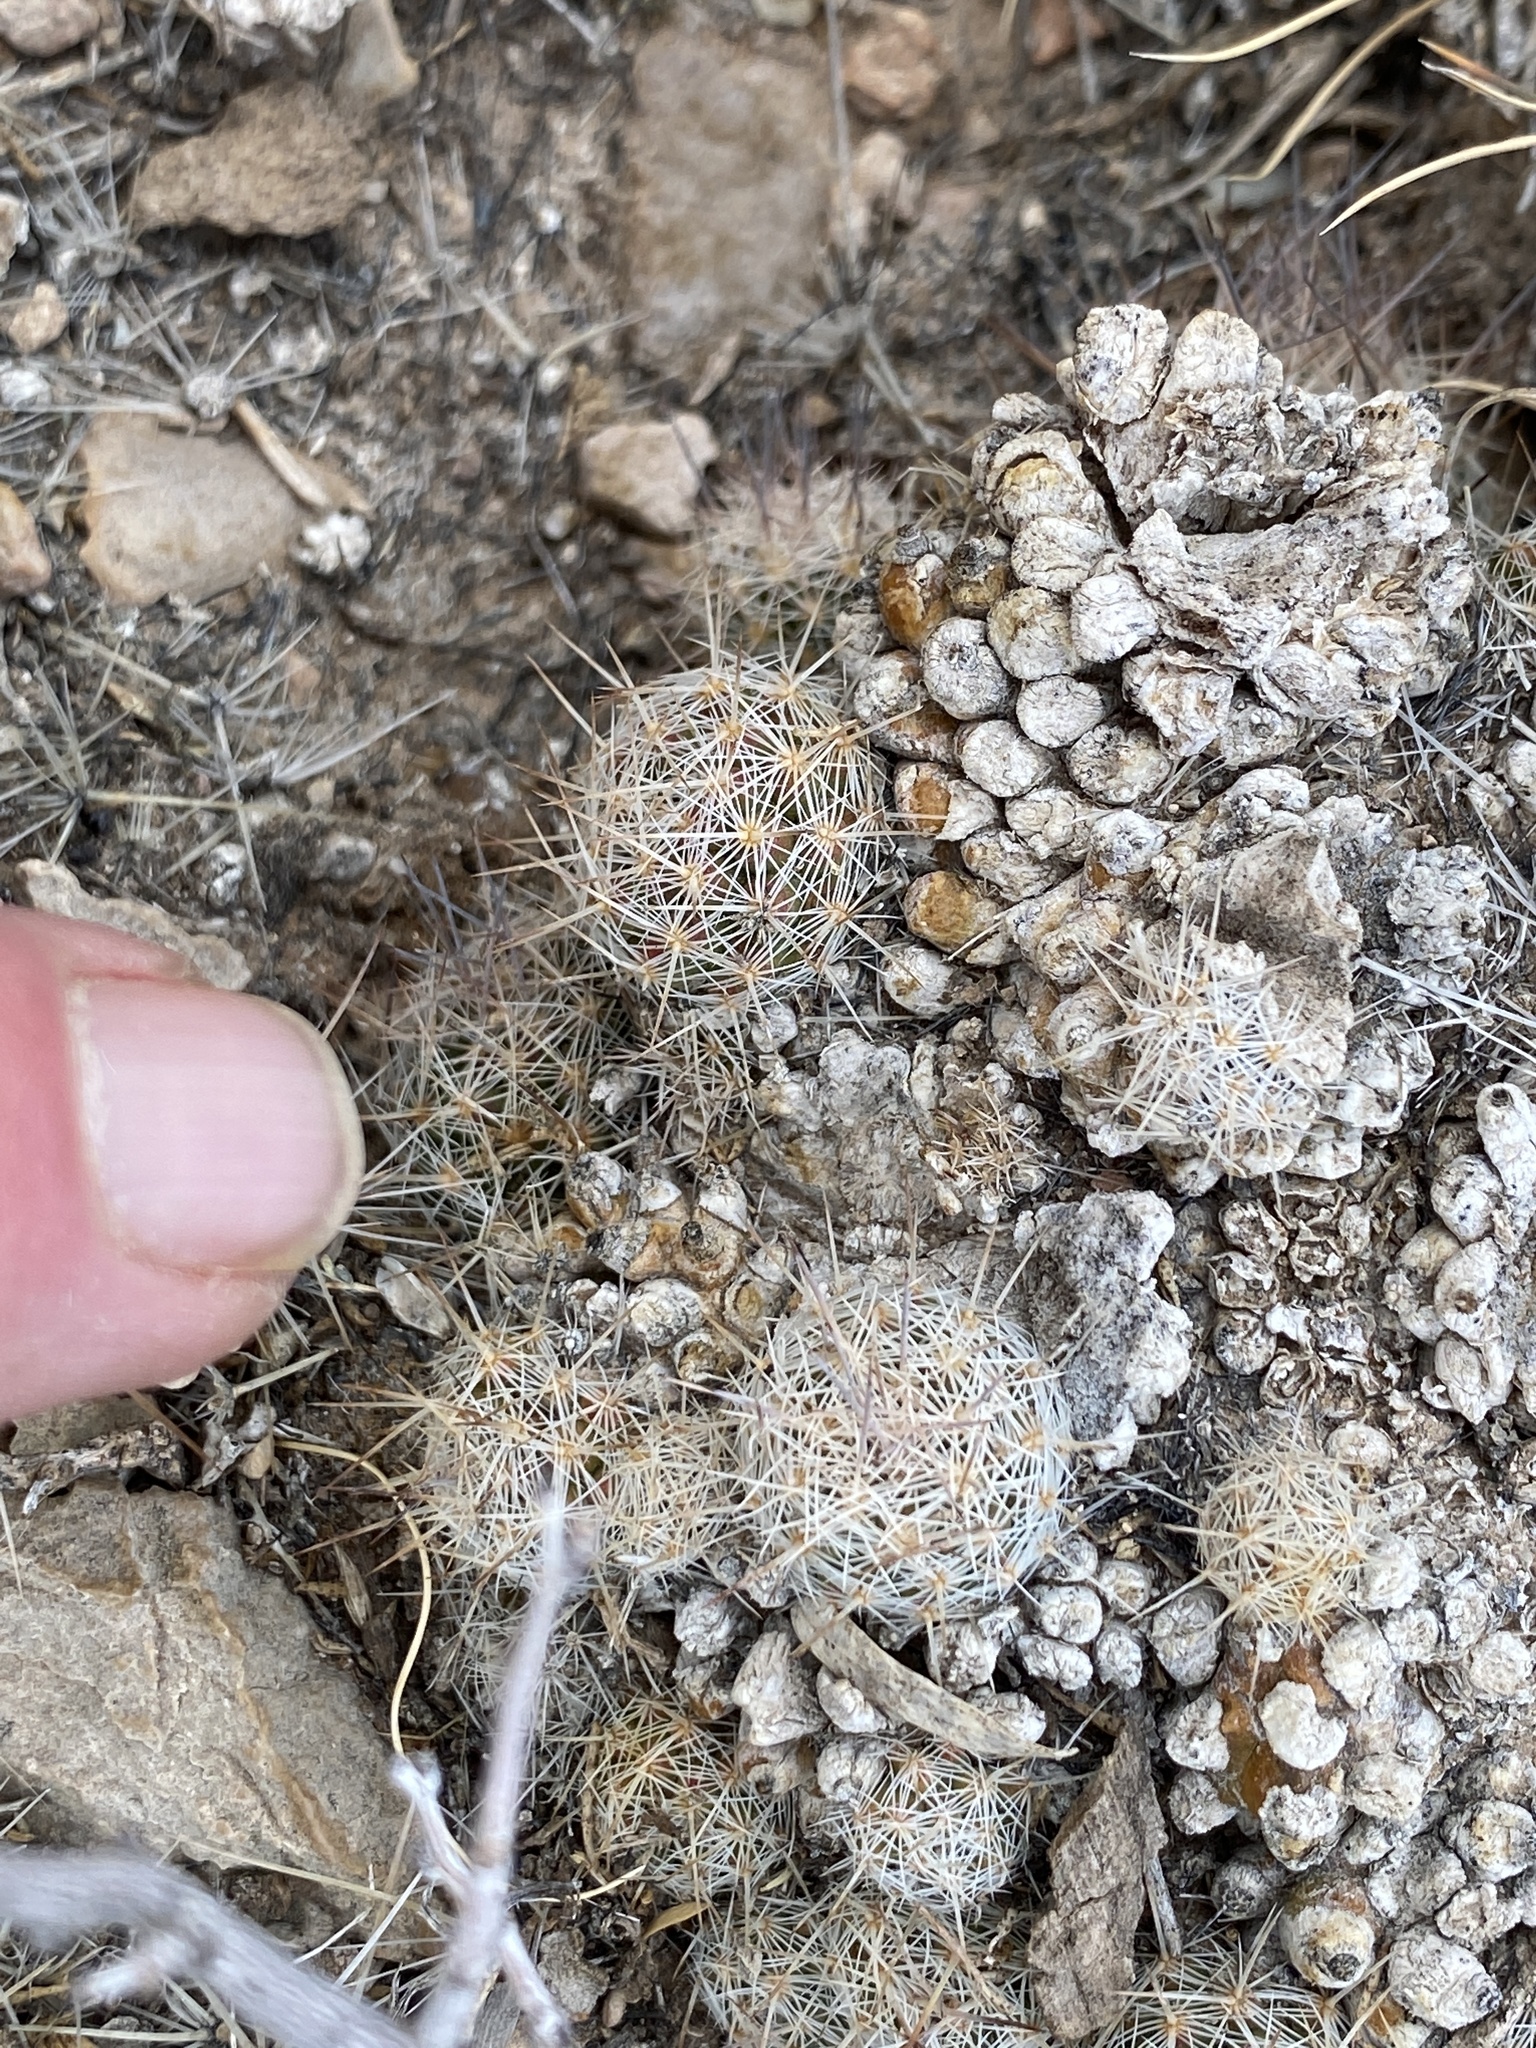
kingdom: Plantae
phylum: Tracheophyta
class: Magnoliopsida
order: Caryophyllales
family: Cactaceae
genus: Pelecyphora
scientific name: Pelecyphora tuberculosa
